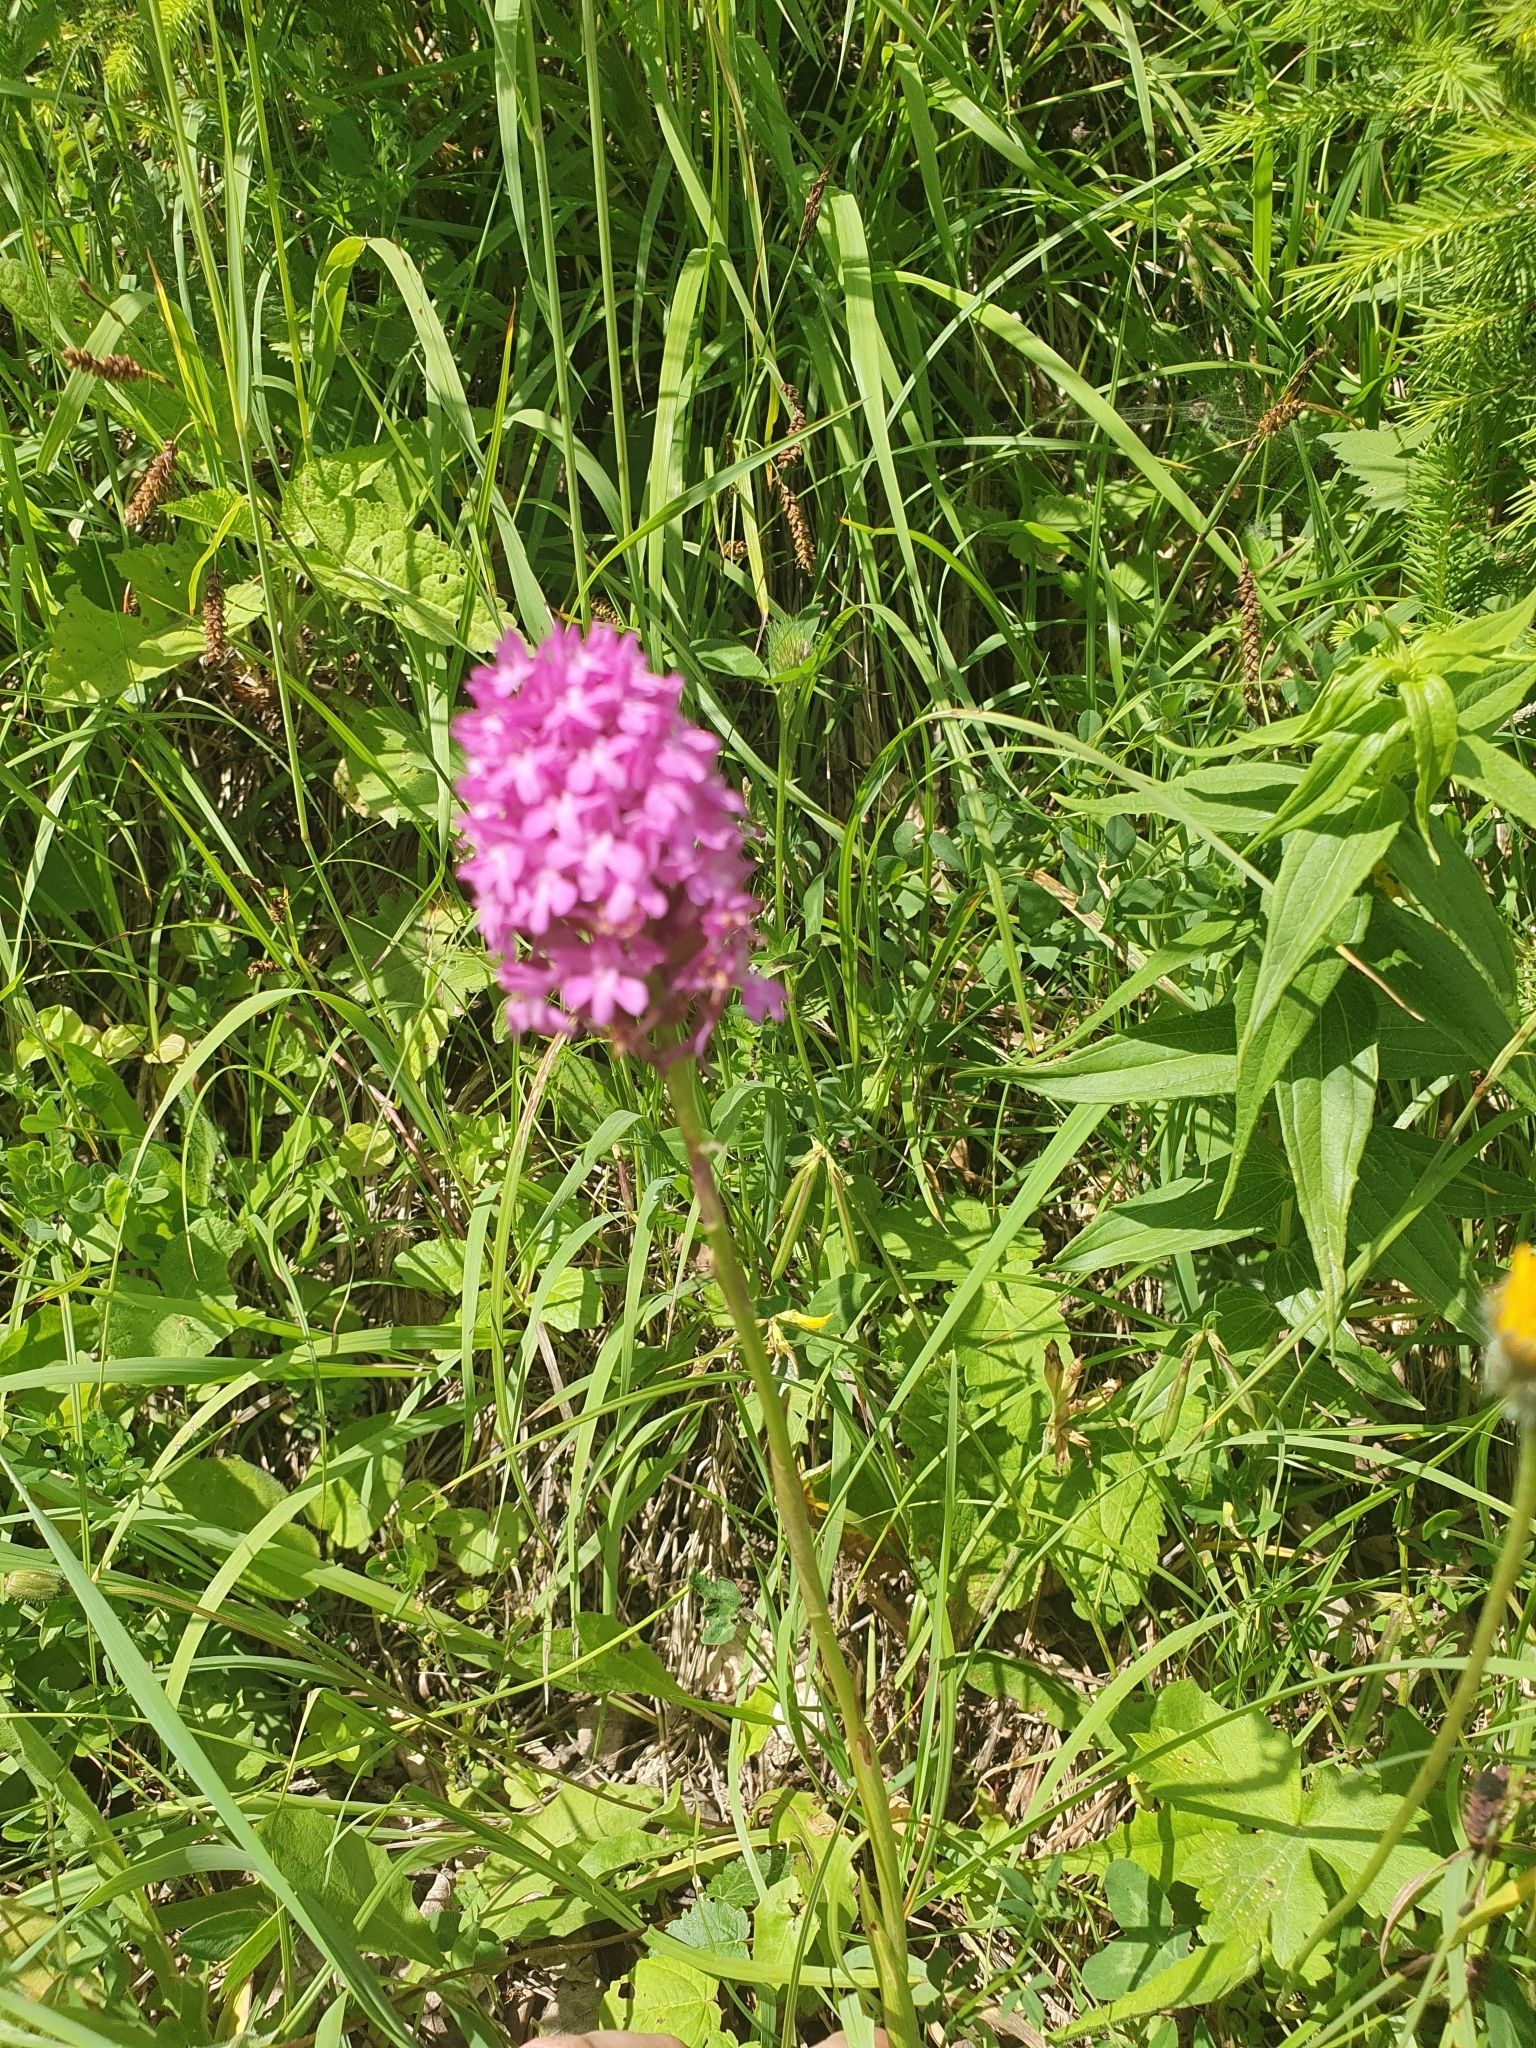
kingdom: Plantae
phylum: Tracheophyta
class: Liliopsida
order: Asparagales
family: Orchidaceae
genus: Anacamptis
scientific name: Anacamptis pyramidalis
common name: Pyramidal orchid
